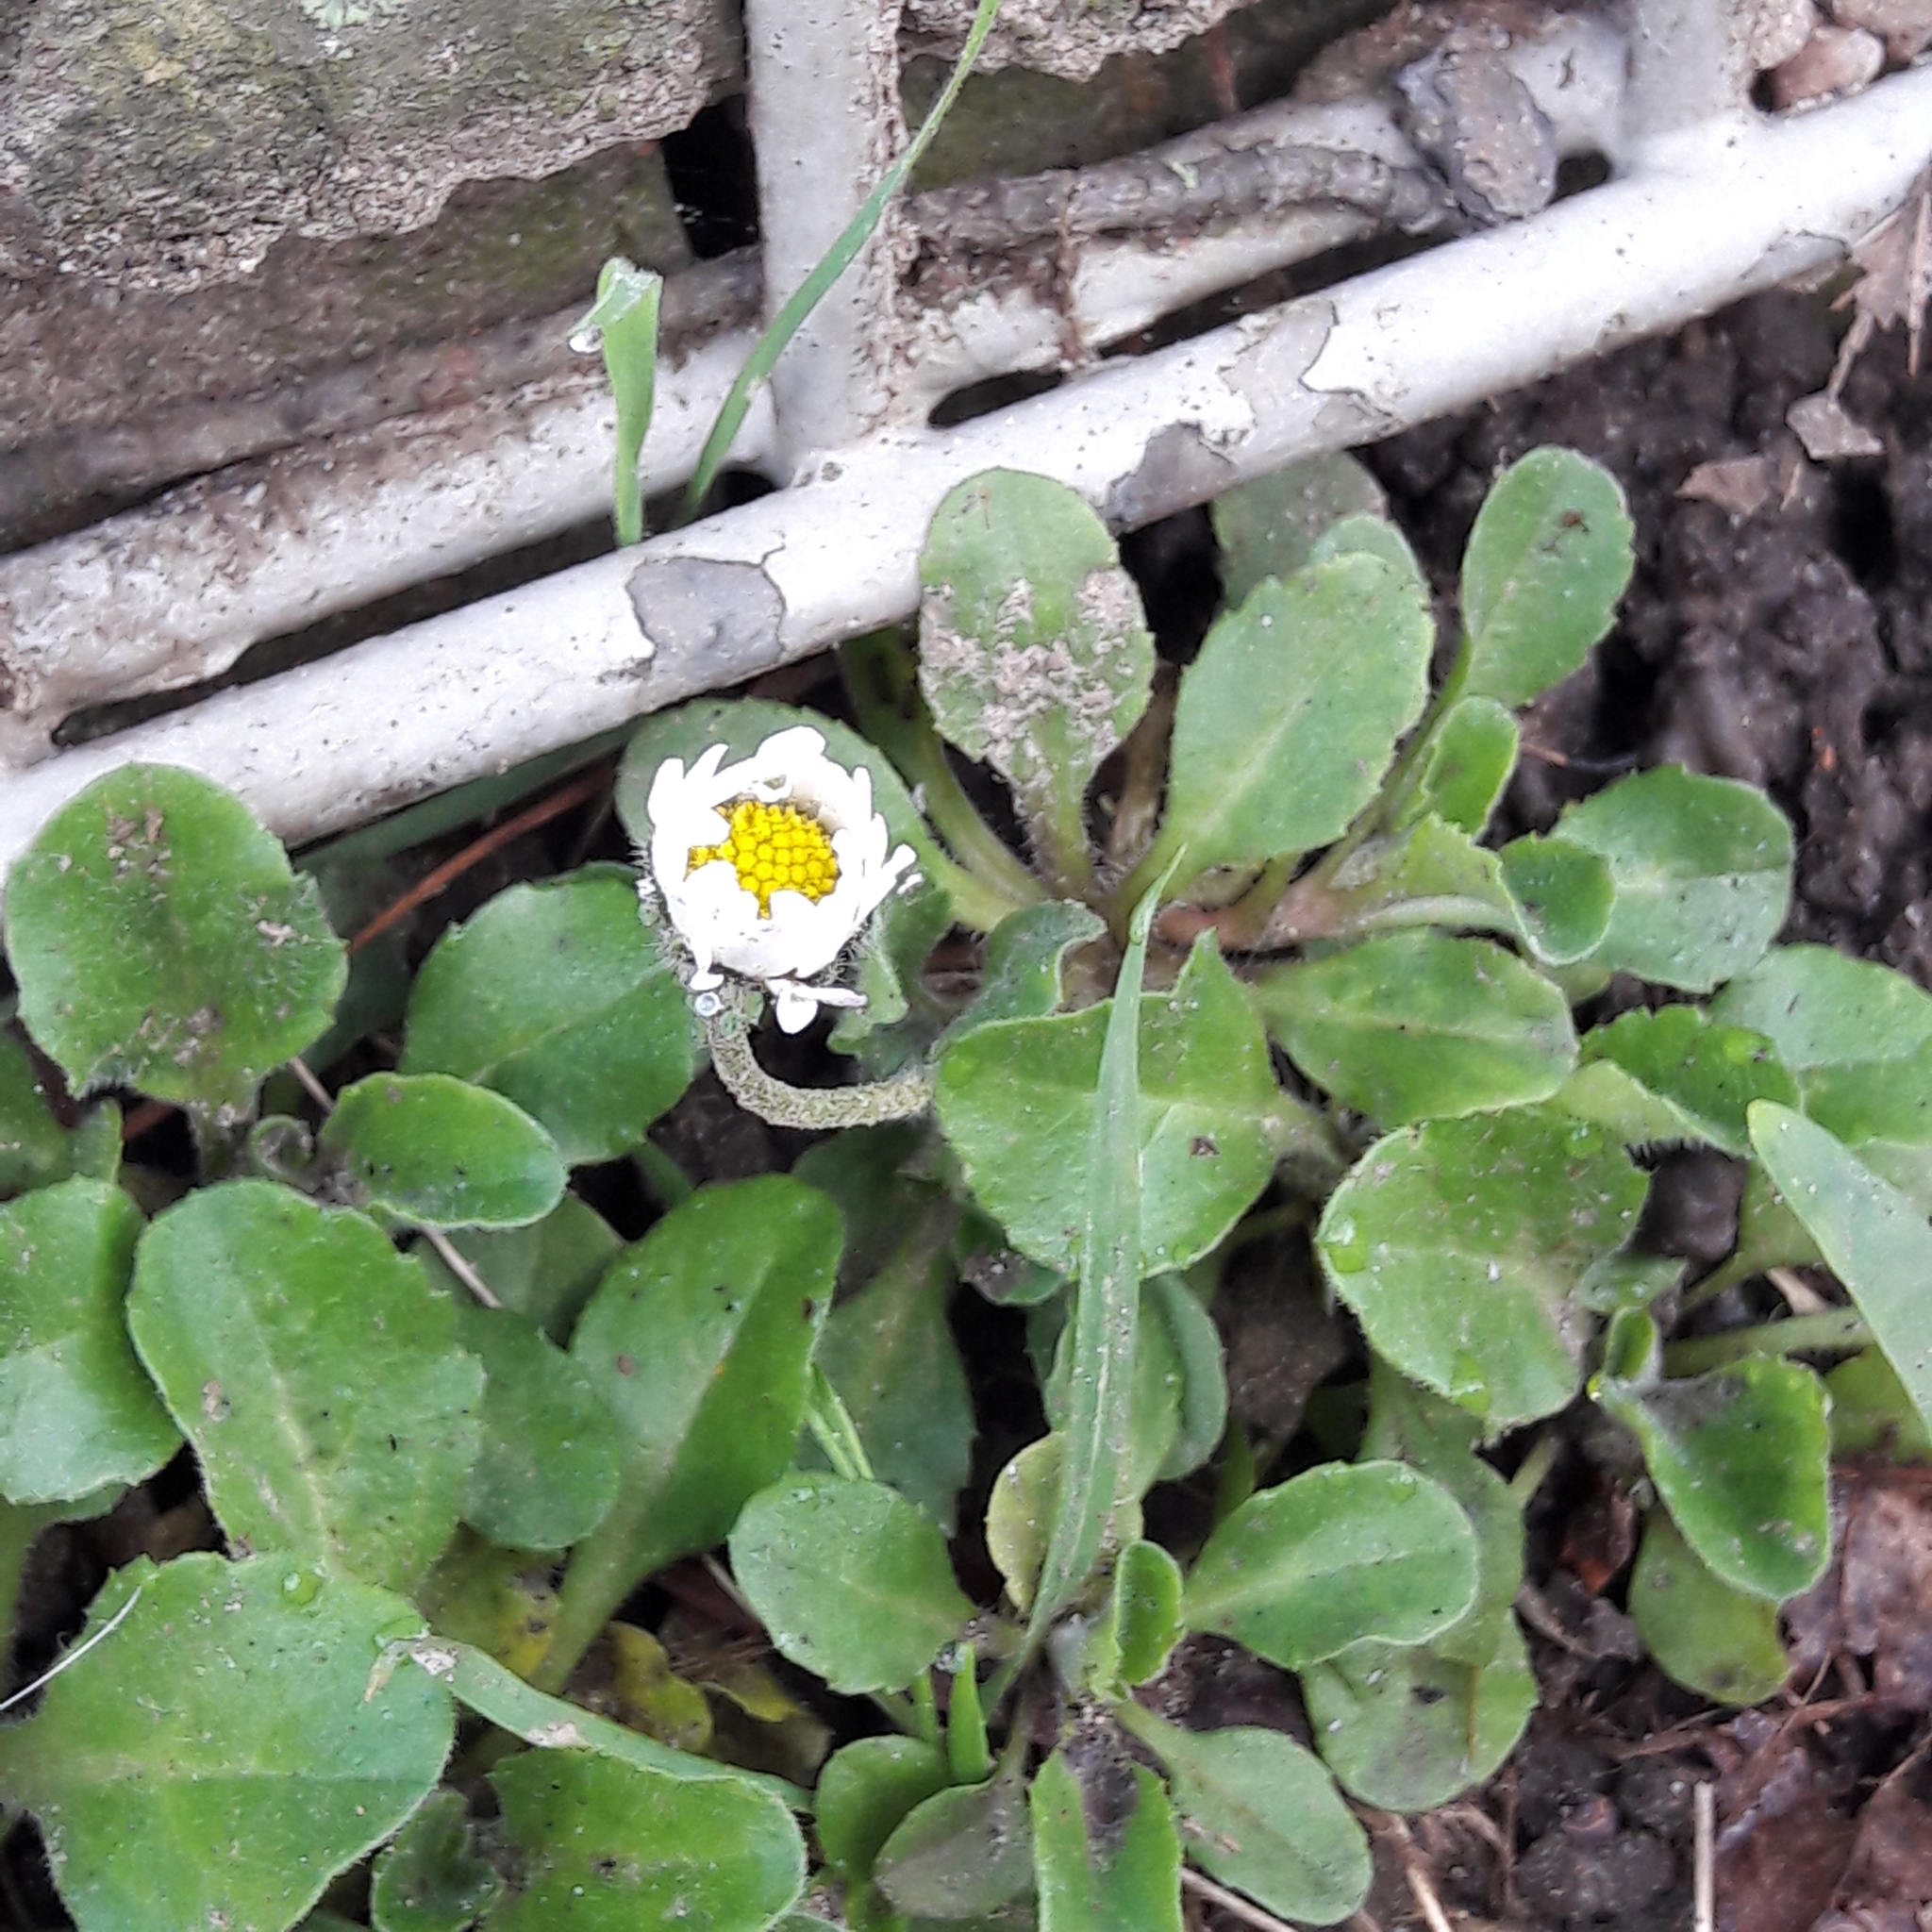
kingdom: Plantae
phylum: Tracheophyta
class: Magnoliopsida
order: Asterales
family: Asteraceae
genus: Bellis
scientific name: Bellis perennis
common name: Lawndaisy
